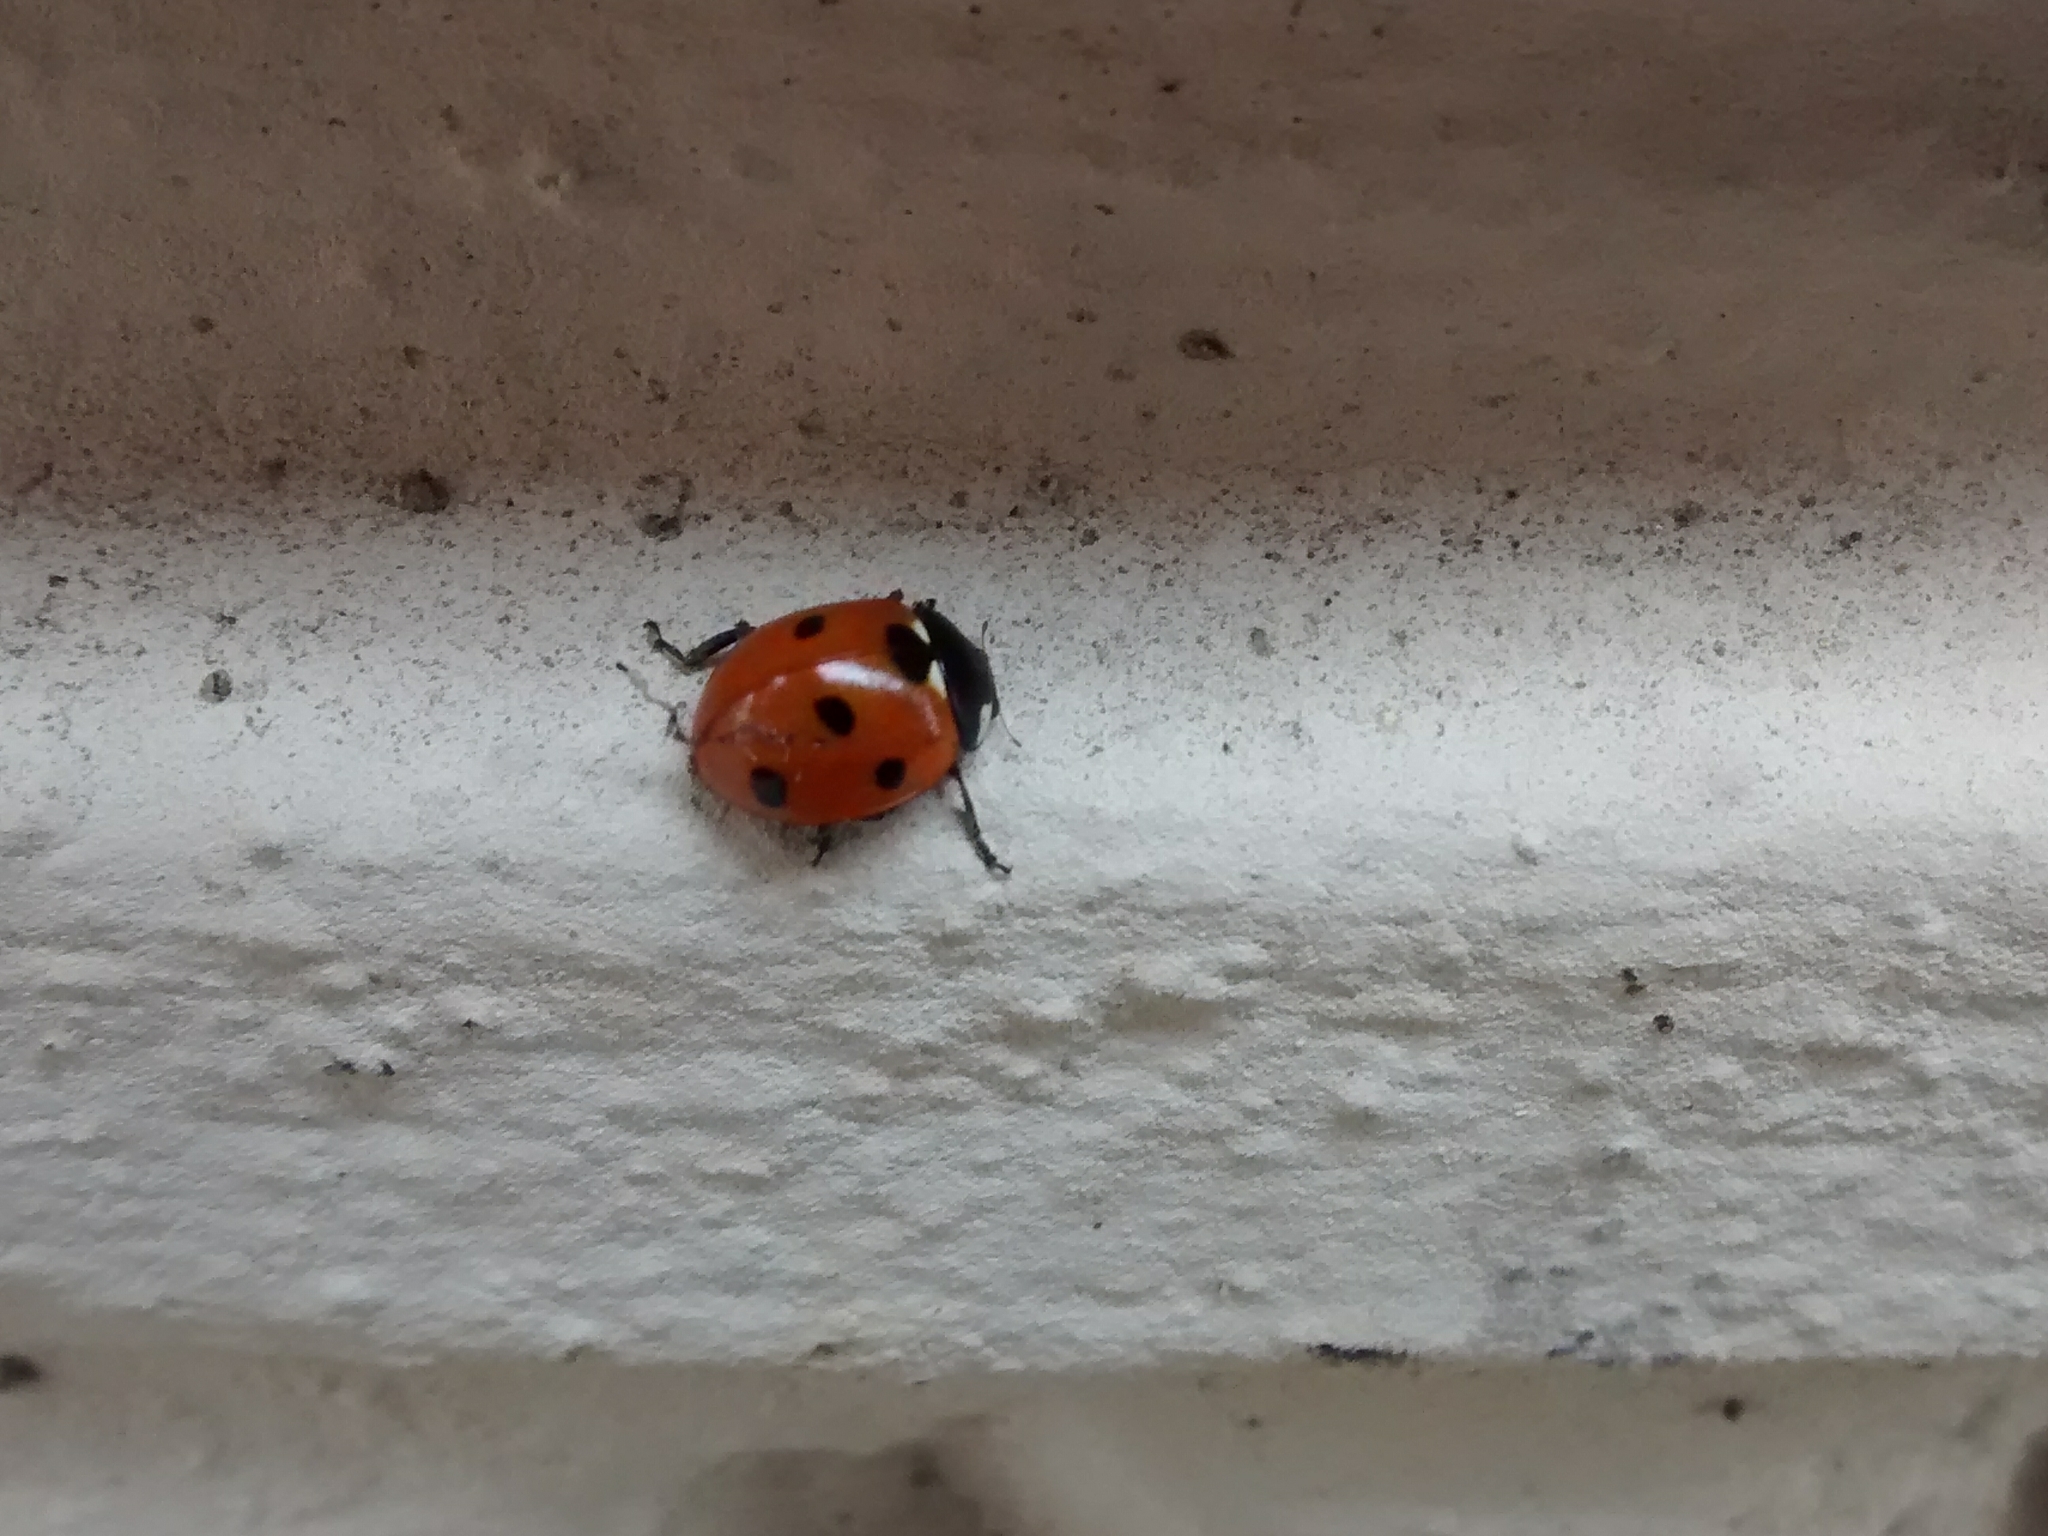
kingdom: Animalia
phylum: Arthropoda
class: Insecta
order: Coleoptera
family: Coccinellidae
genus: Coccinella
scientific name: Coccinella septempunctata
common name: Sevenspotted lady beetle
